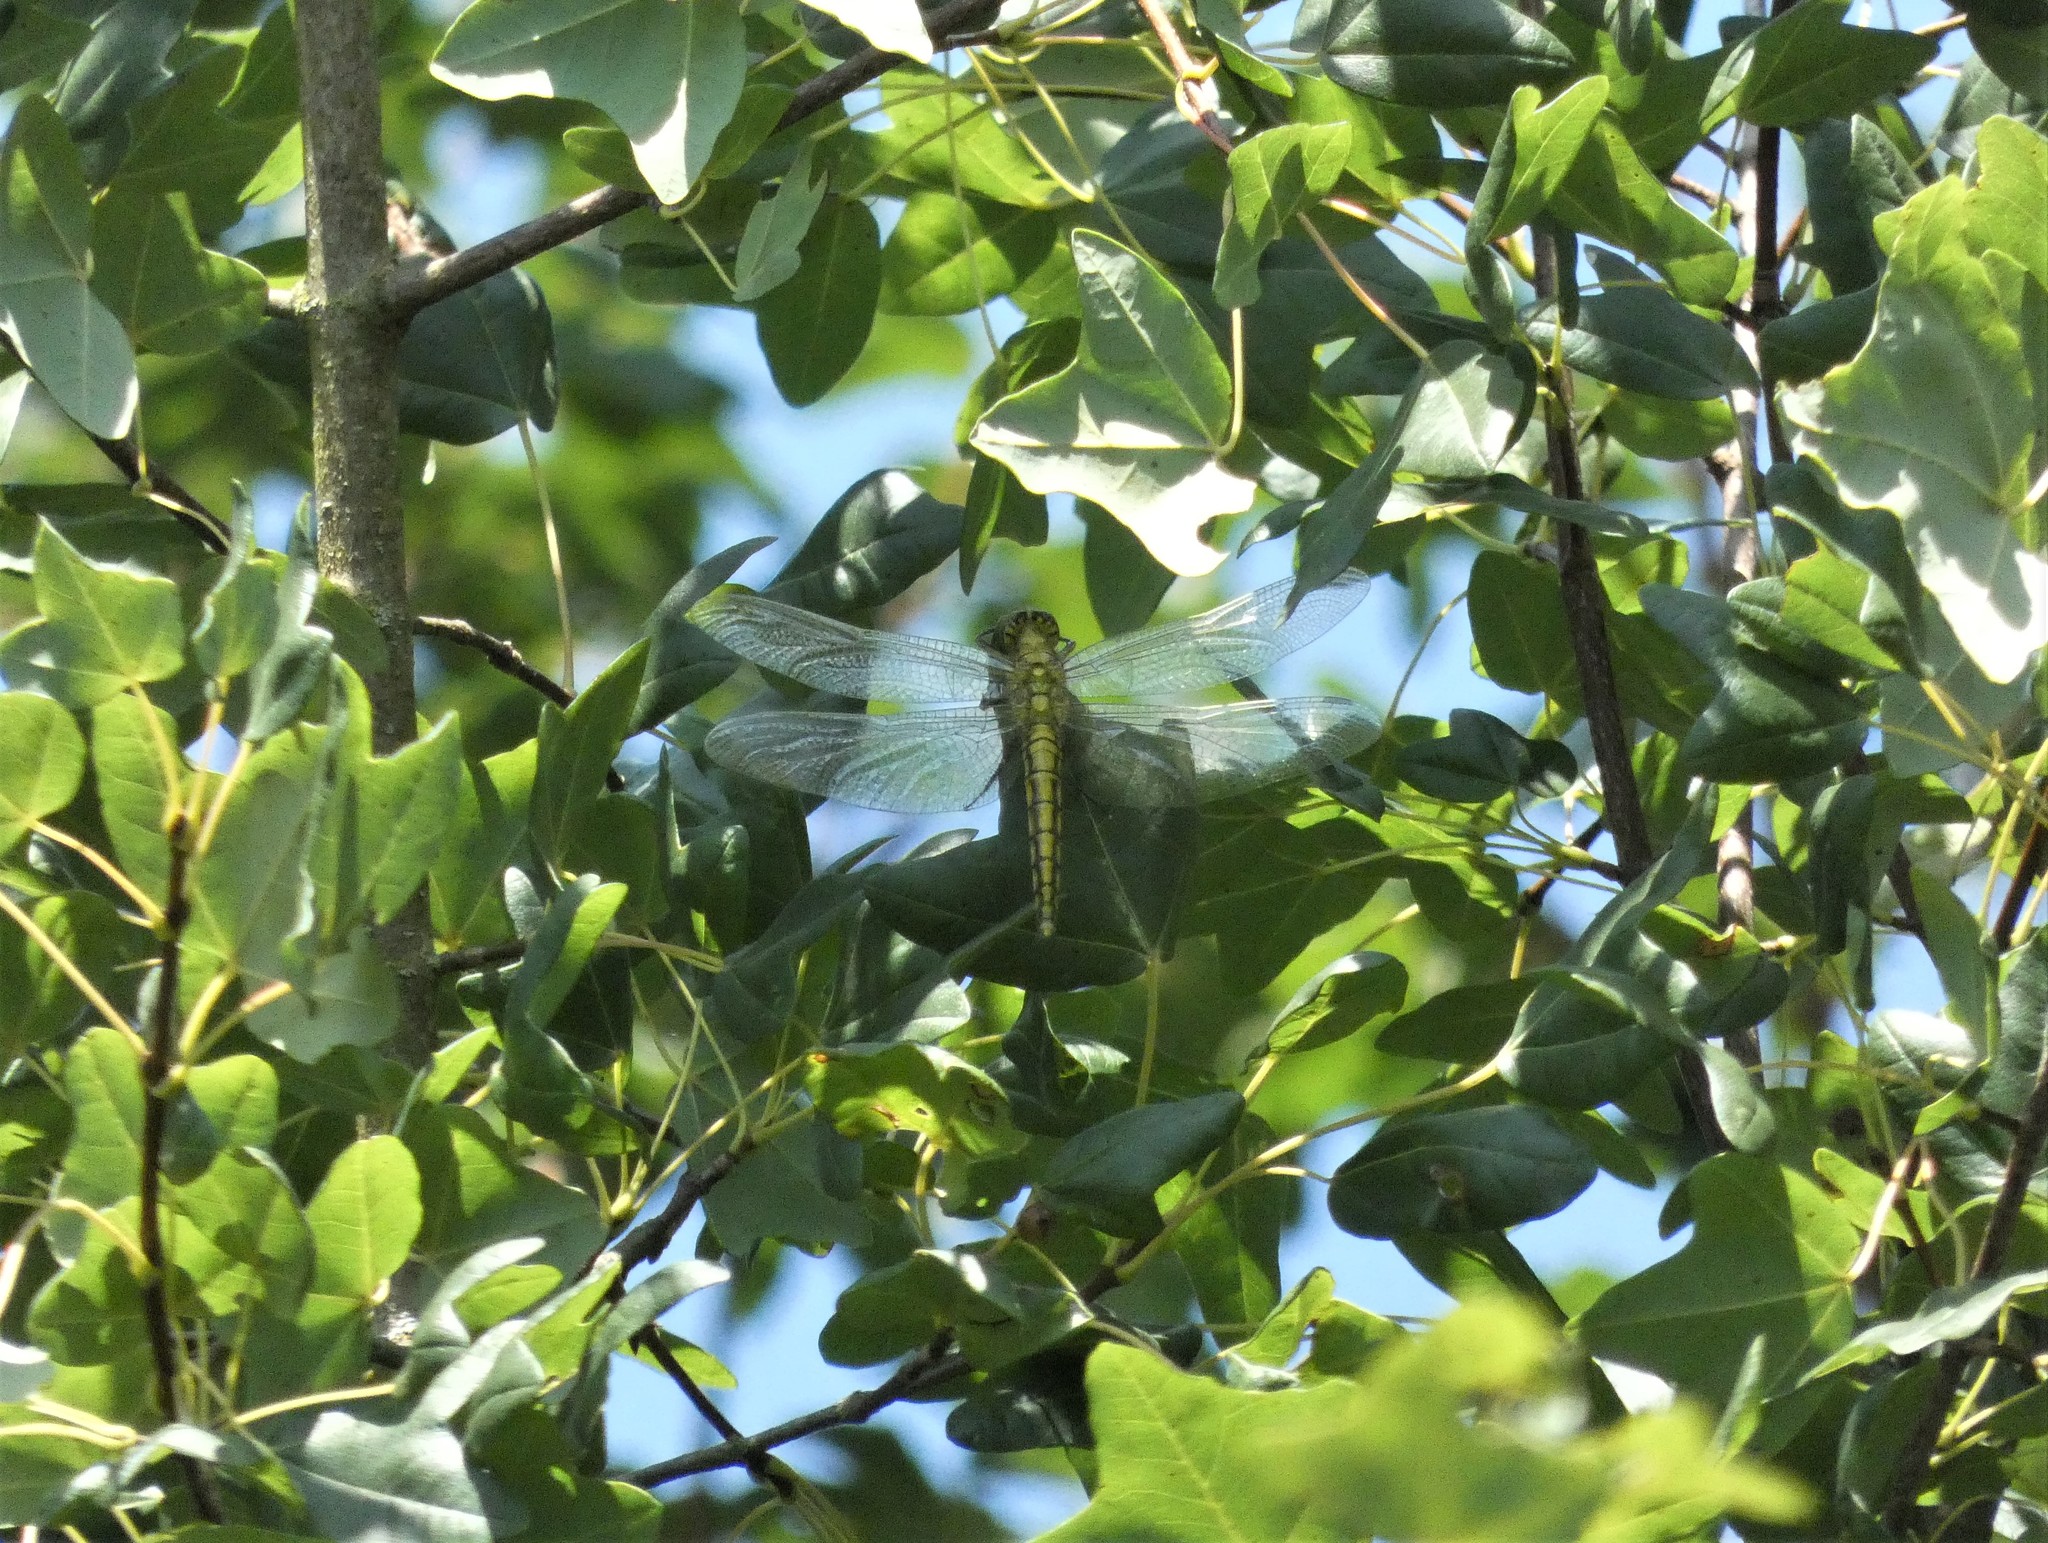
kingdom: Animalia
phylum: Arthropoda
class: Insecta
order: Odonata
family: Libellulidae
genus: Orthetrum
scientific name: Orthetrum cancellatum
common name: Black-tailed skimmer
